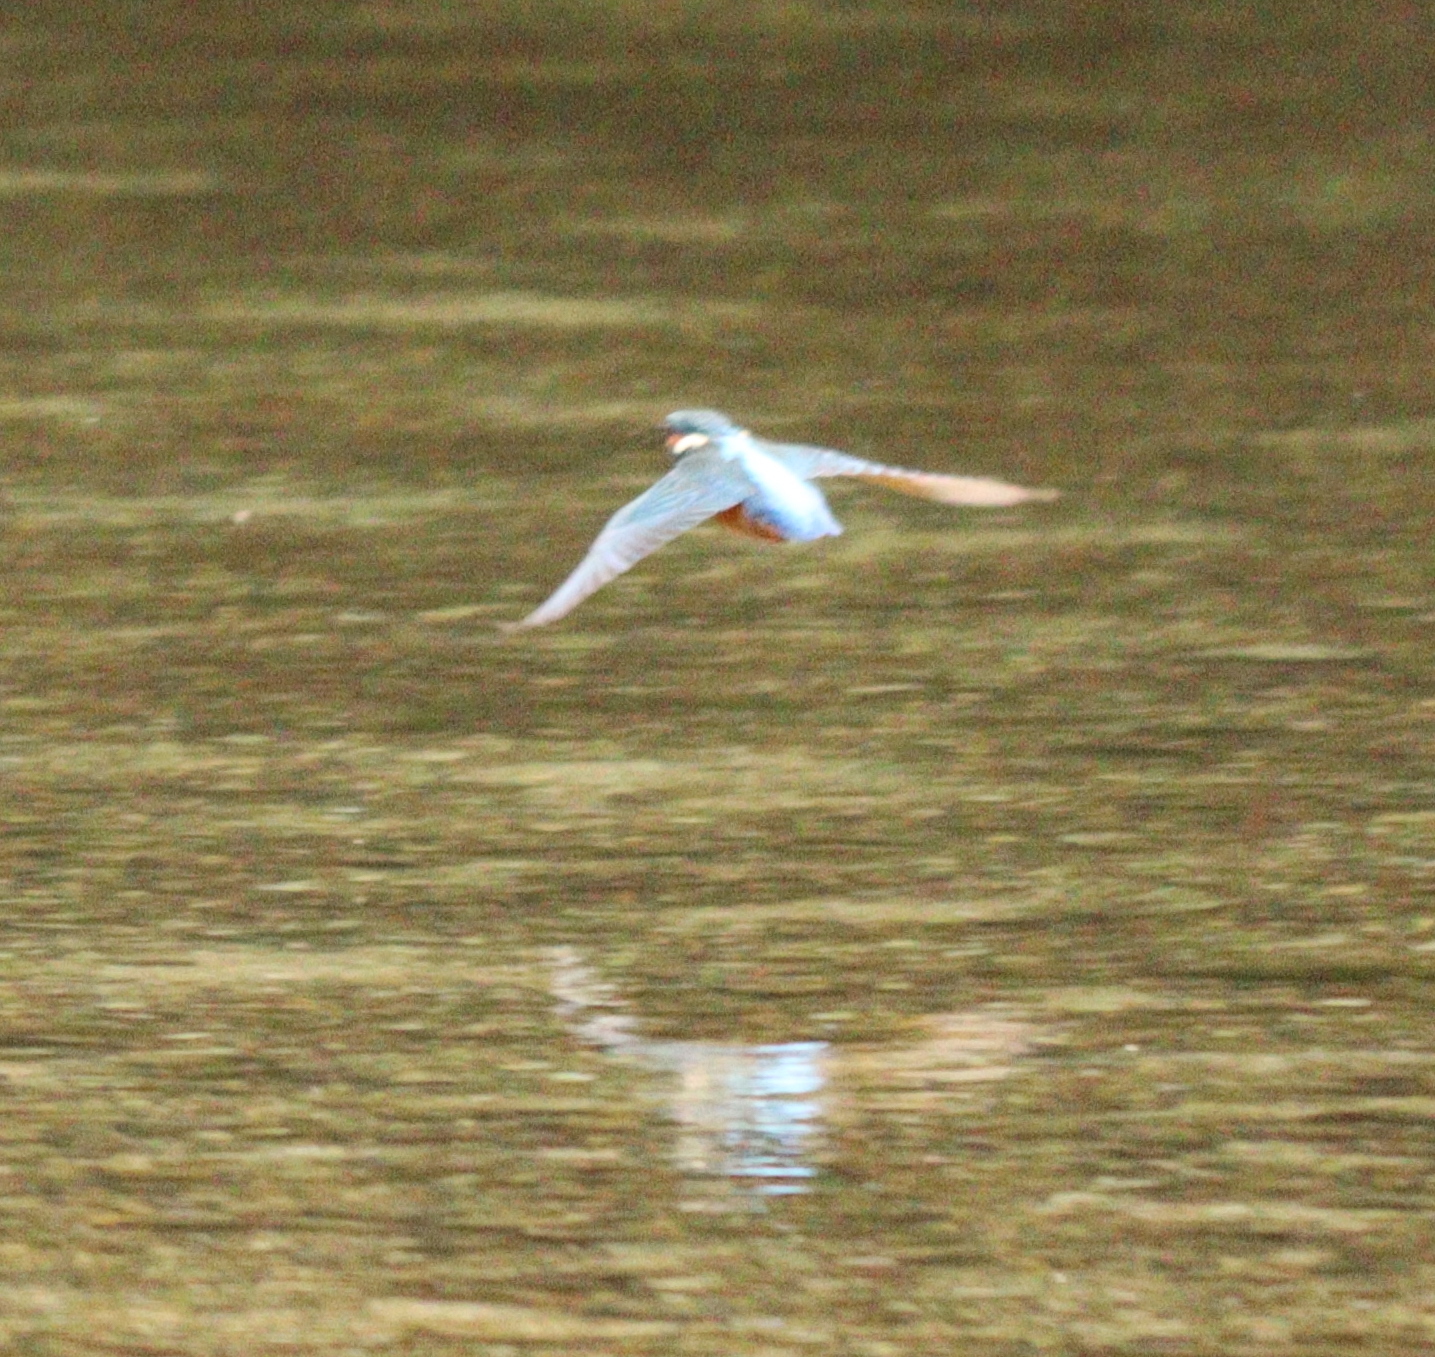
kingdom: Animalia
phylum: Chordata
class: Aves
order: Coraciiformes
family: Alcedinidae
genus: Alcedo
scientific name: Alcedo atthis
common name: Common kingfisher
